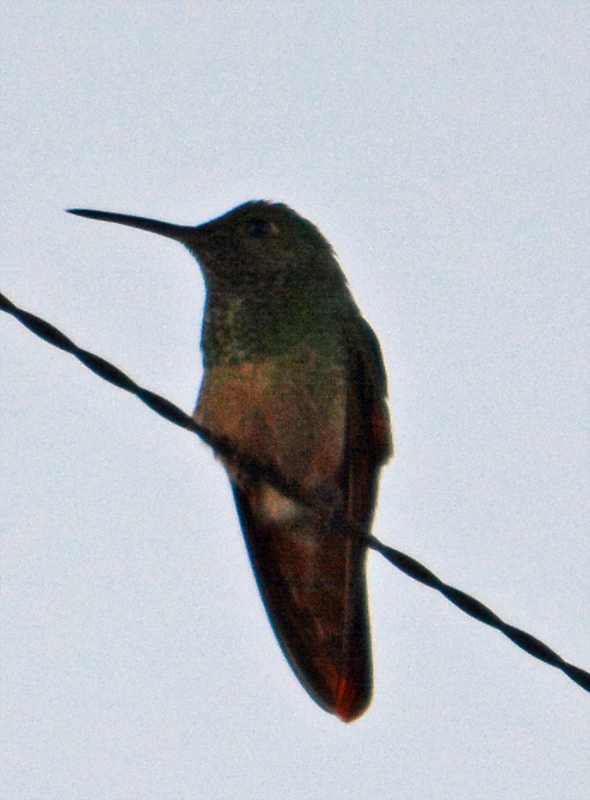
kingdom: Animalia
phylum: Chordata
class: Aves
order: Apodiformes
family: Trochilidae
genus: Saucerottia
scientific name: Saucerottia beryllina
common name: Berylline hummingbird
